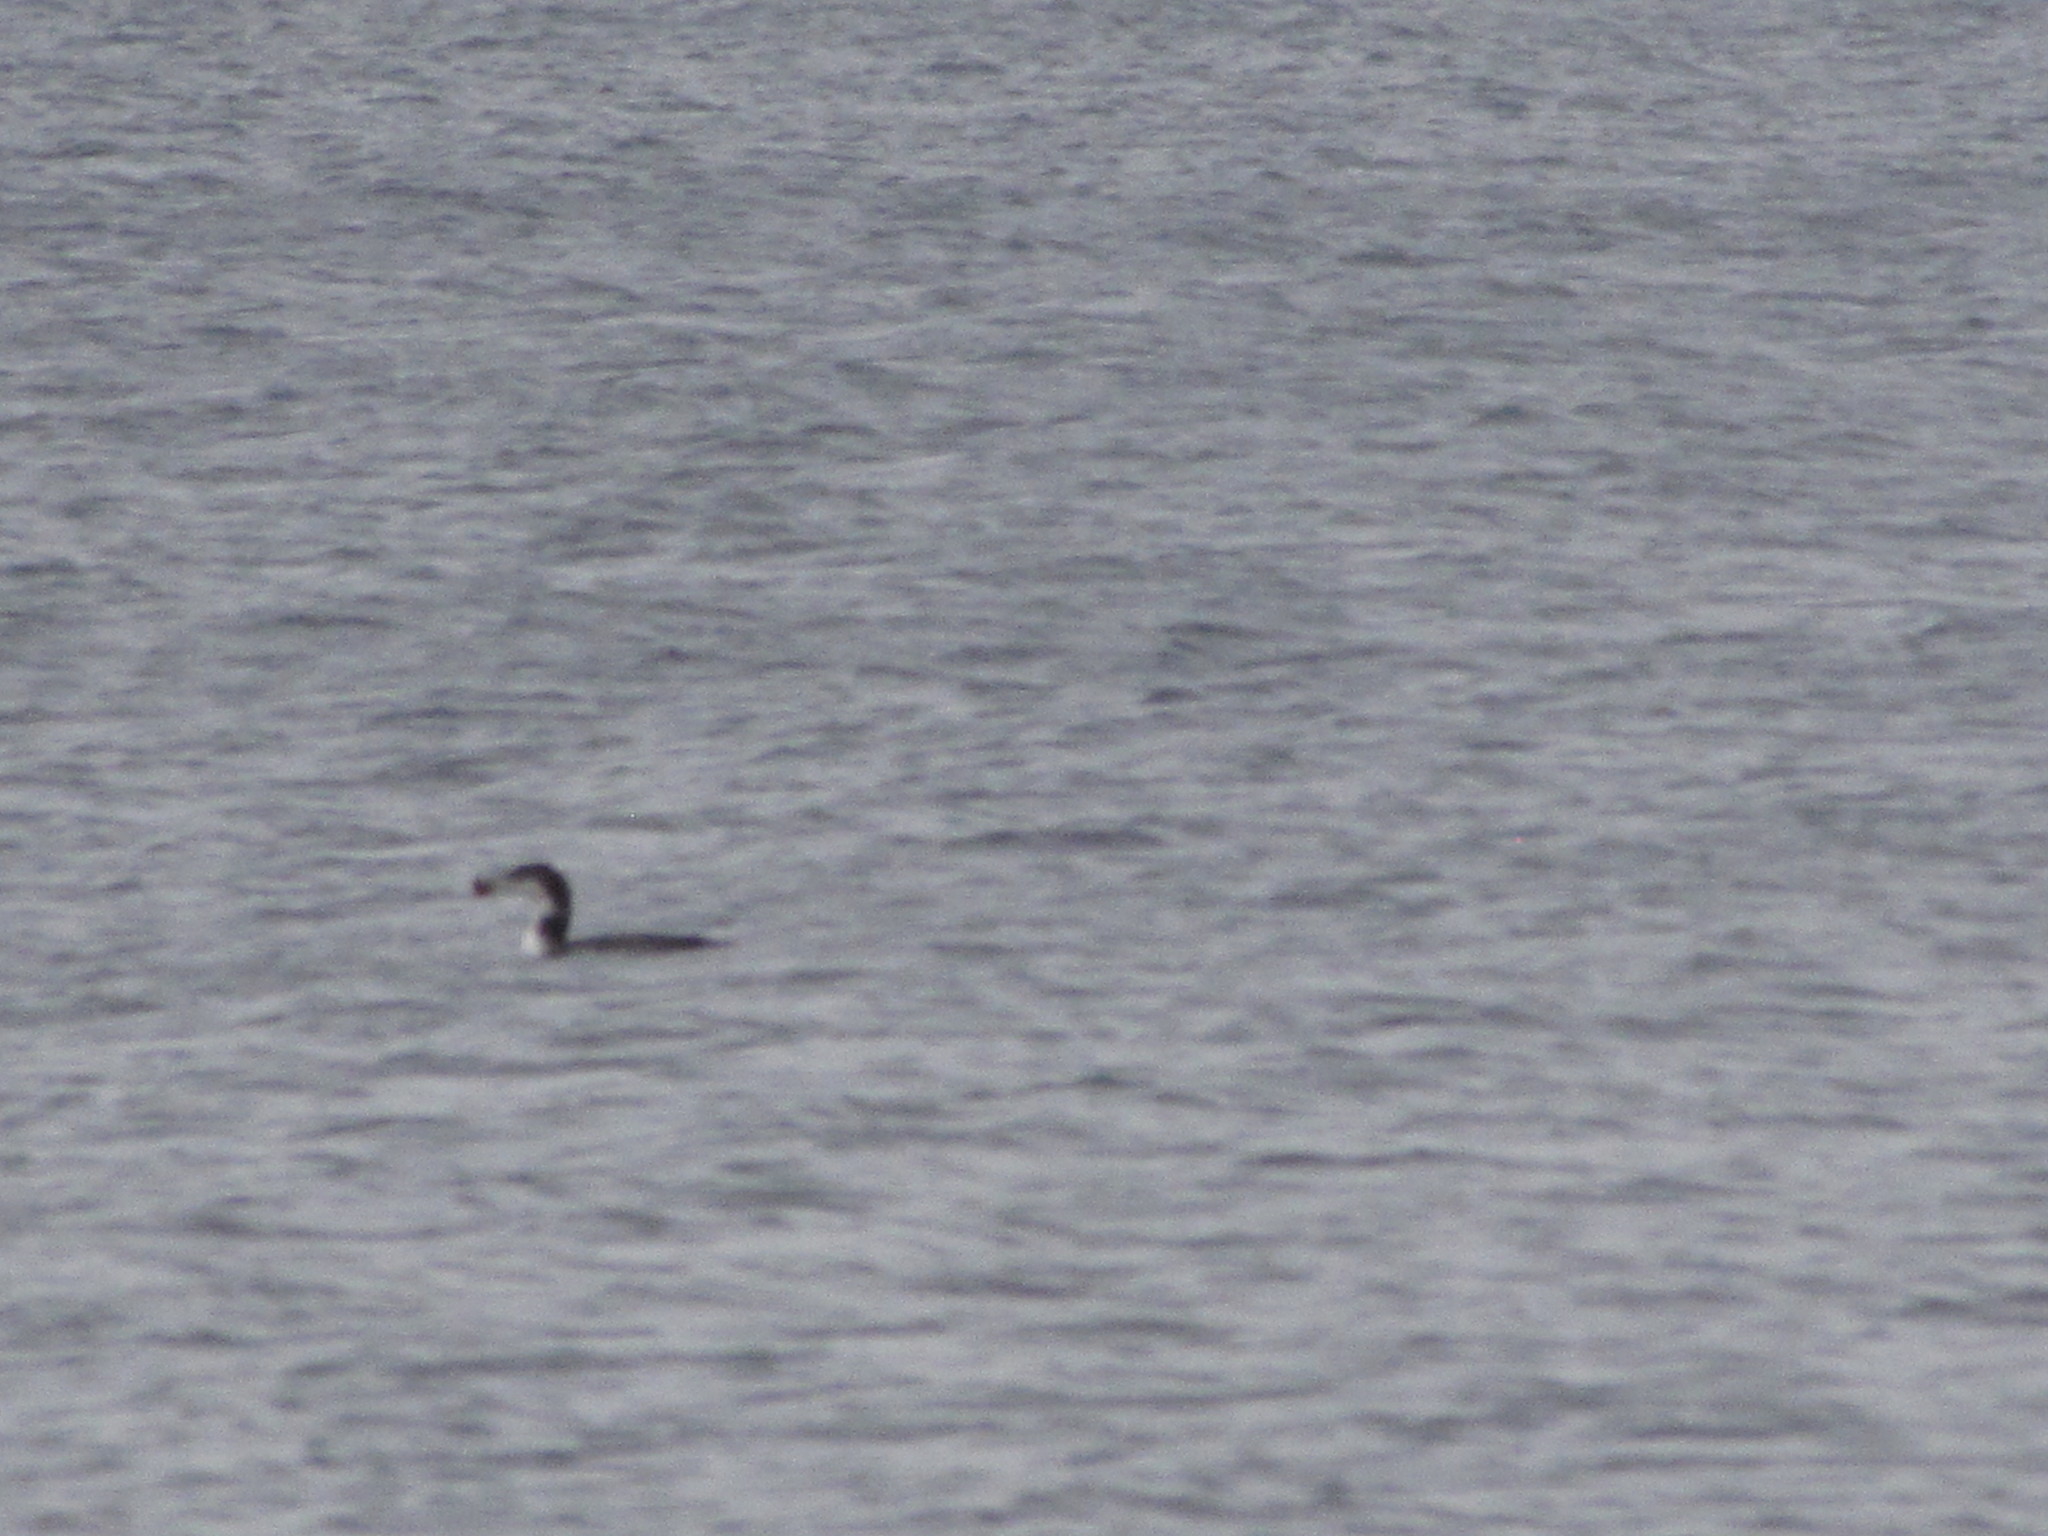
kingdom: Animalia
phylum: Chordata
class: Aves
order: Gaviiformes
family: Gaviidae
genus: Gavia
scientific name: Gavia immer
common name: Common loon
